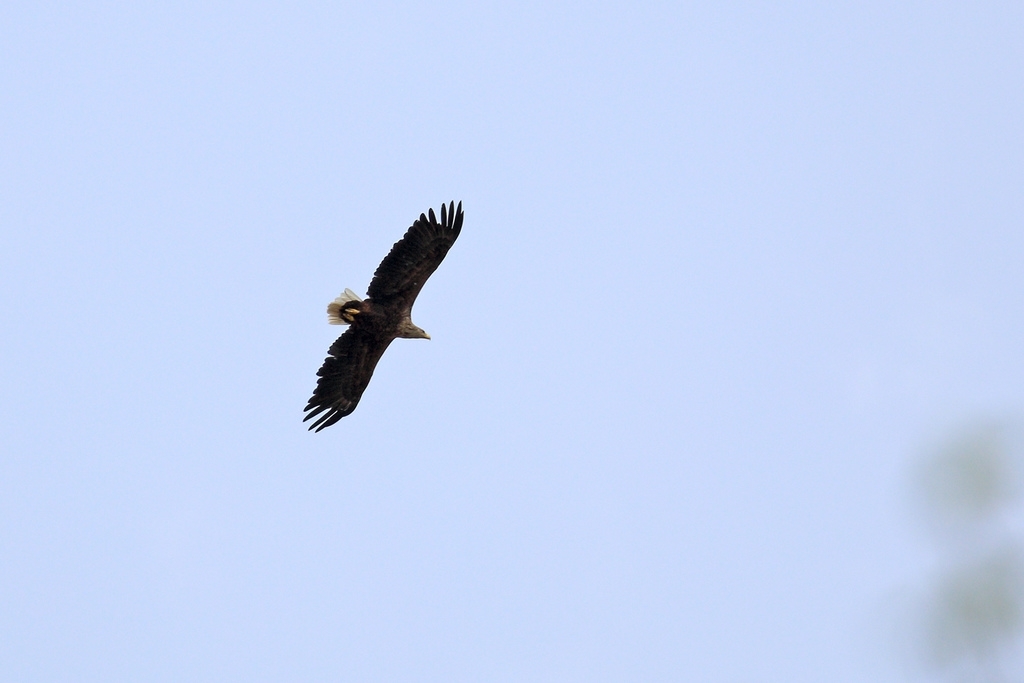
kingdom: Animalia
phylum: Chordata
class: Aves
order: Accipitriformes
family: Accipitridae
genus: Haliaeetus
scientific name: Haliaeetus albicilla
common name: White-tailed eagle
